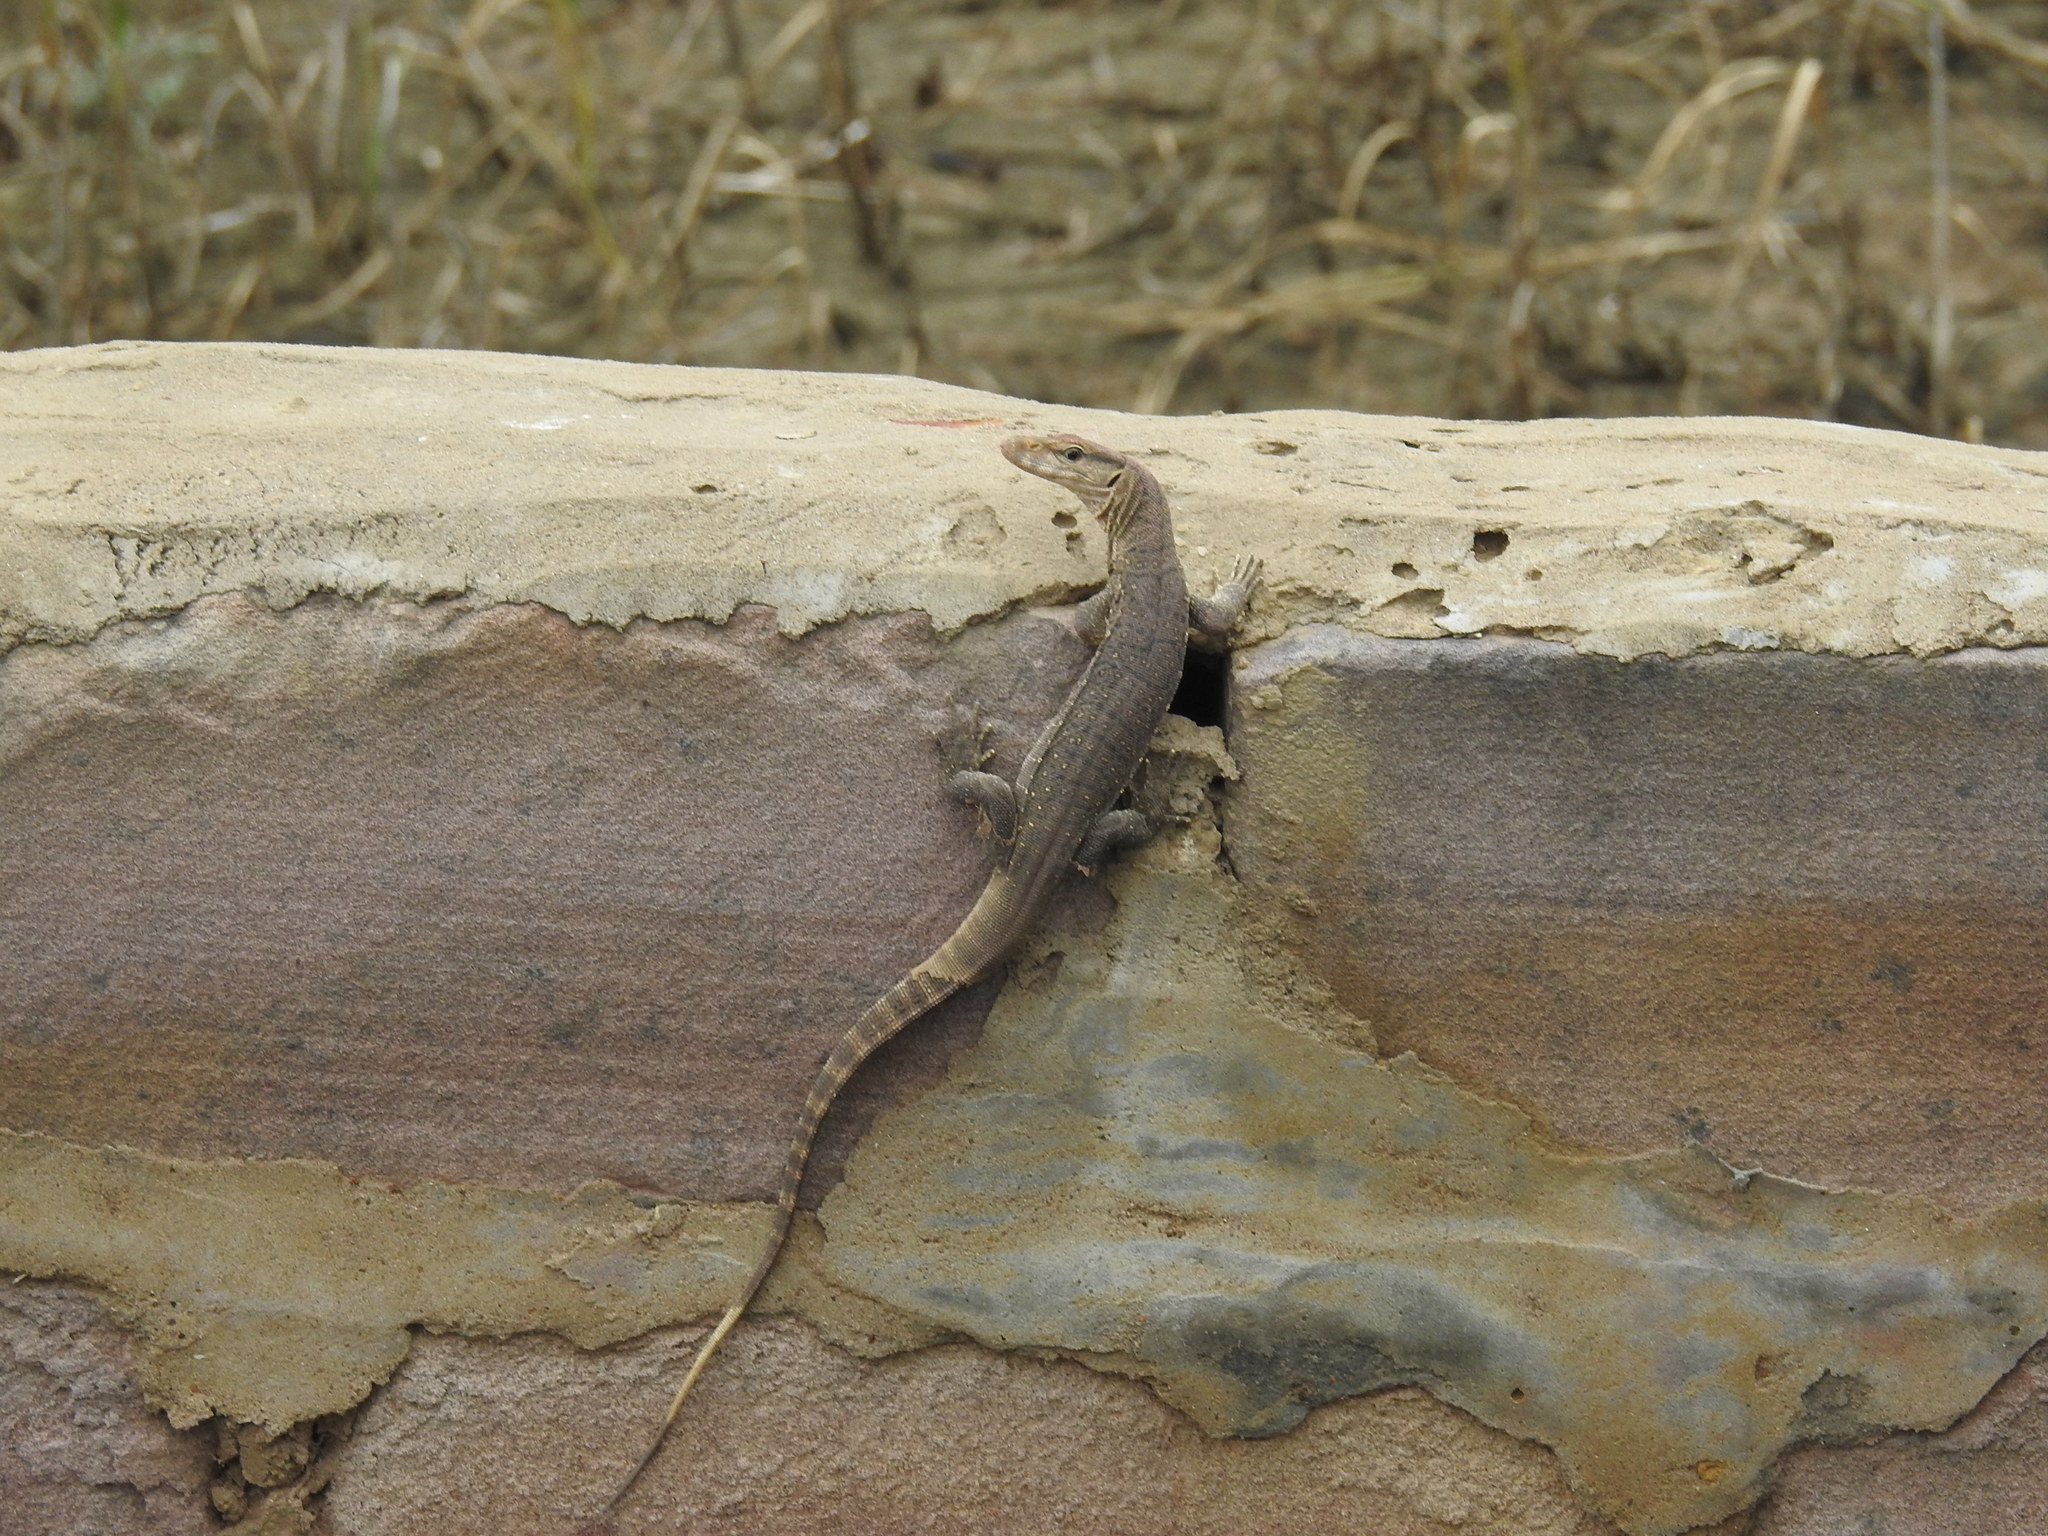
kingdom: Animalia
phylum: Chordata
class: Squamata
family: Varanidae
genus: Varanus
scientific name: Varanus bengalensis
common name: Bengal monitor
